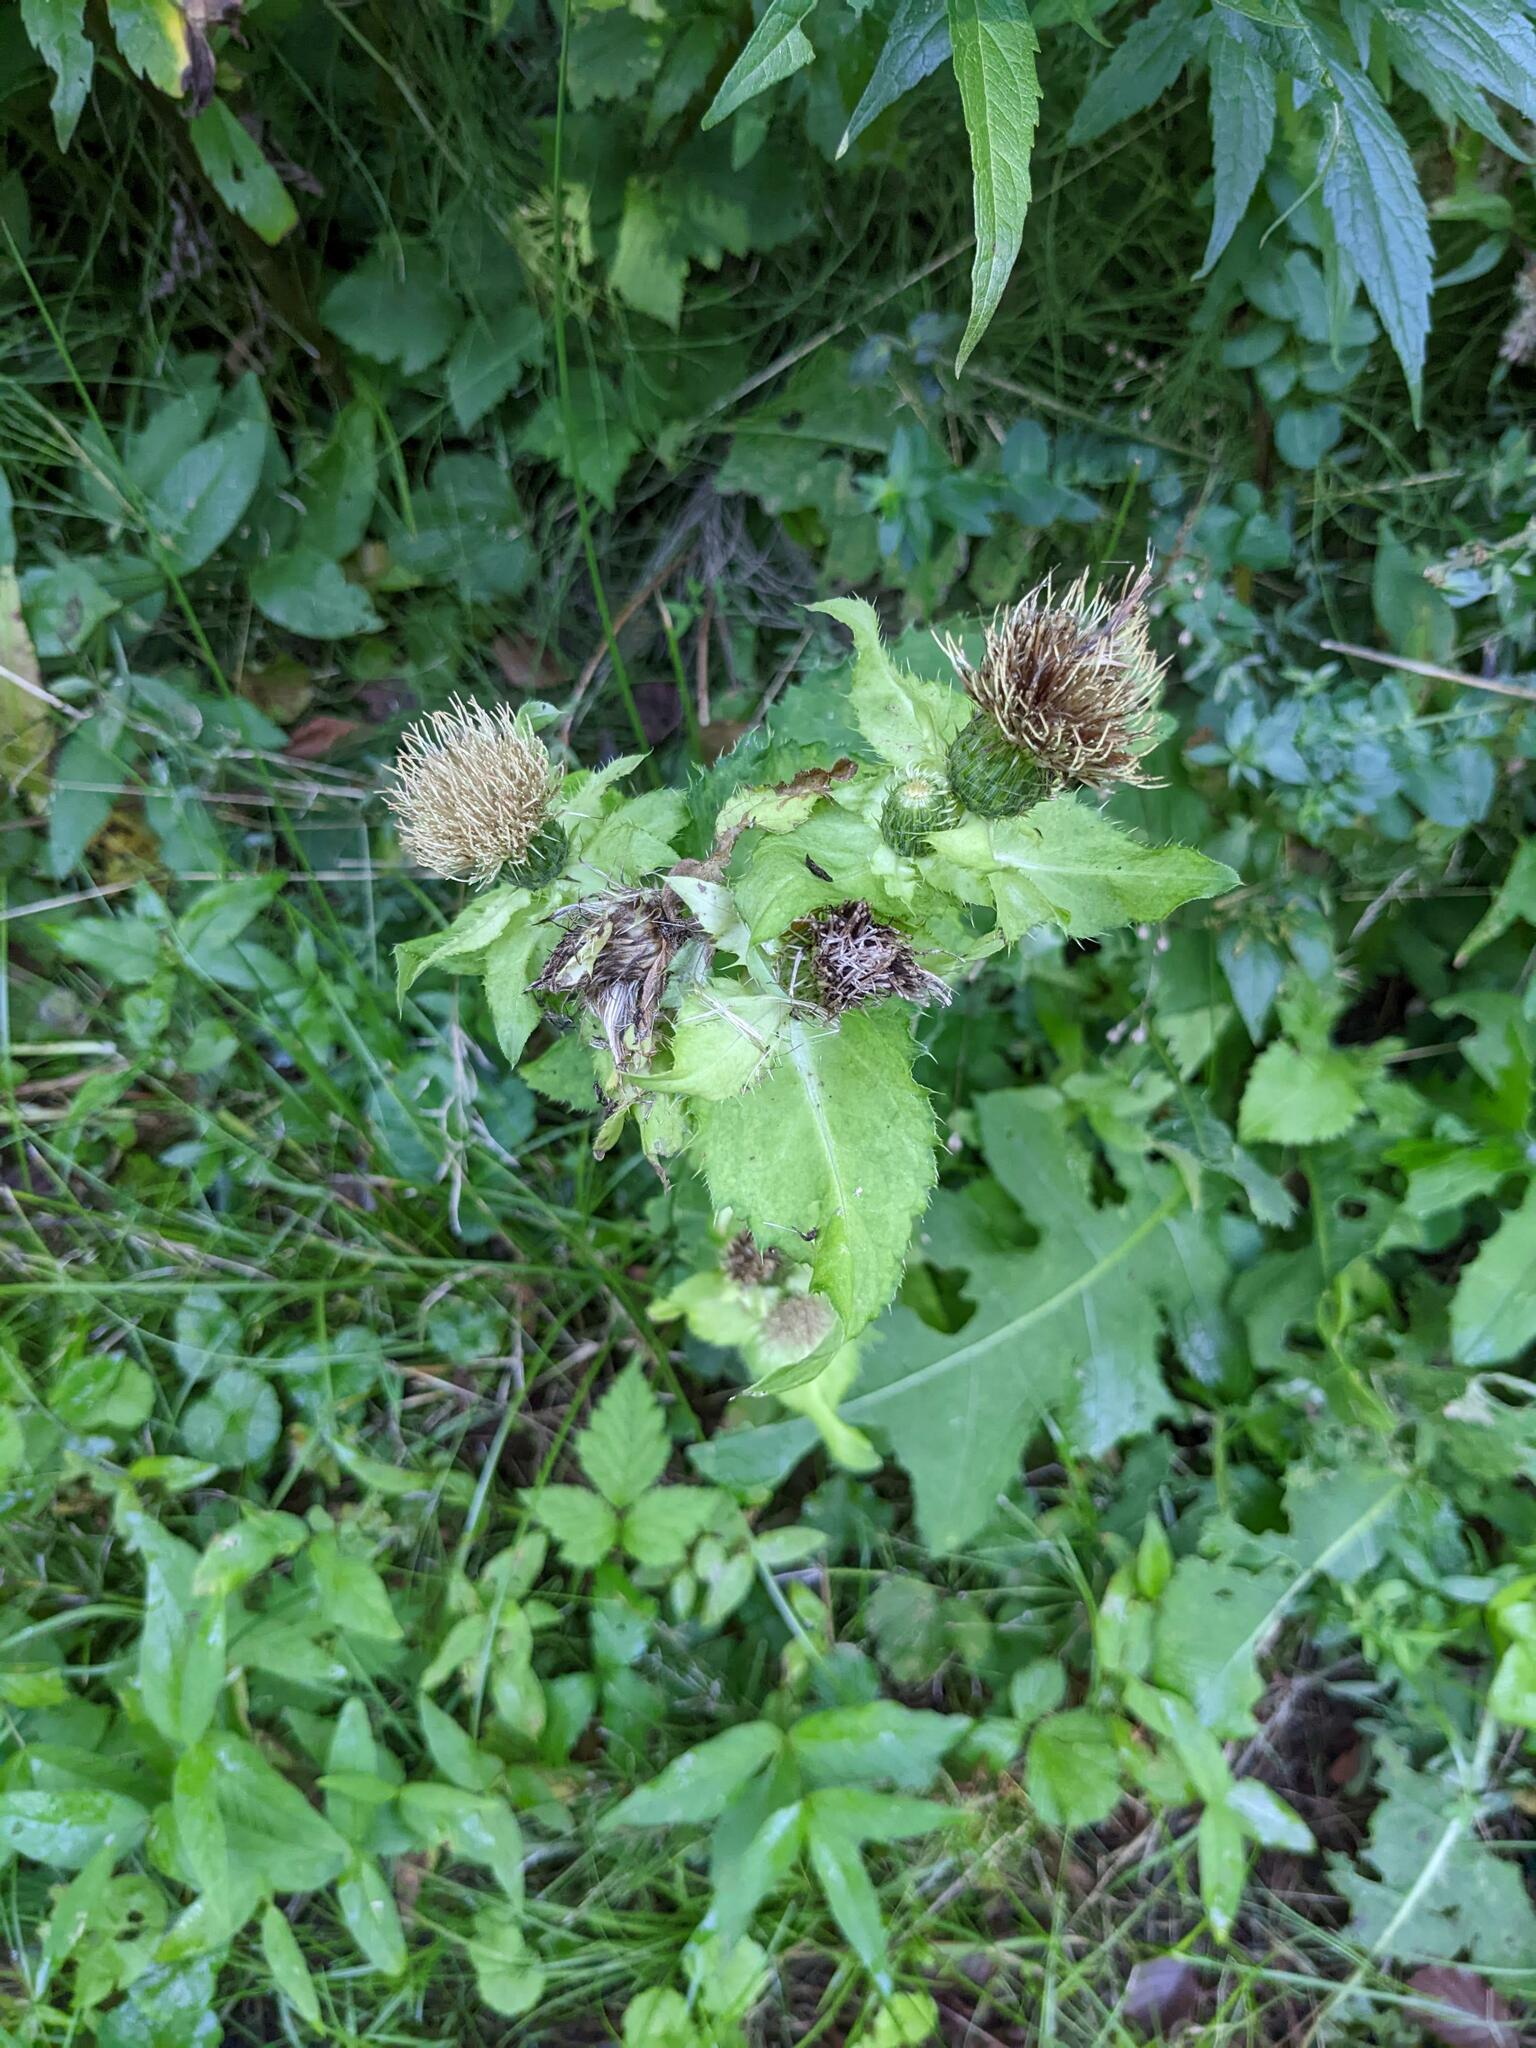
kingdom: Plantae
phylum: Tracheophyta
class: Magnoliopsida
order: Asterales
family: Asteraceae
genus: Cirsium
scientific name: Cirsium oleraceum
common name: Cabbage thistle
